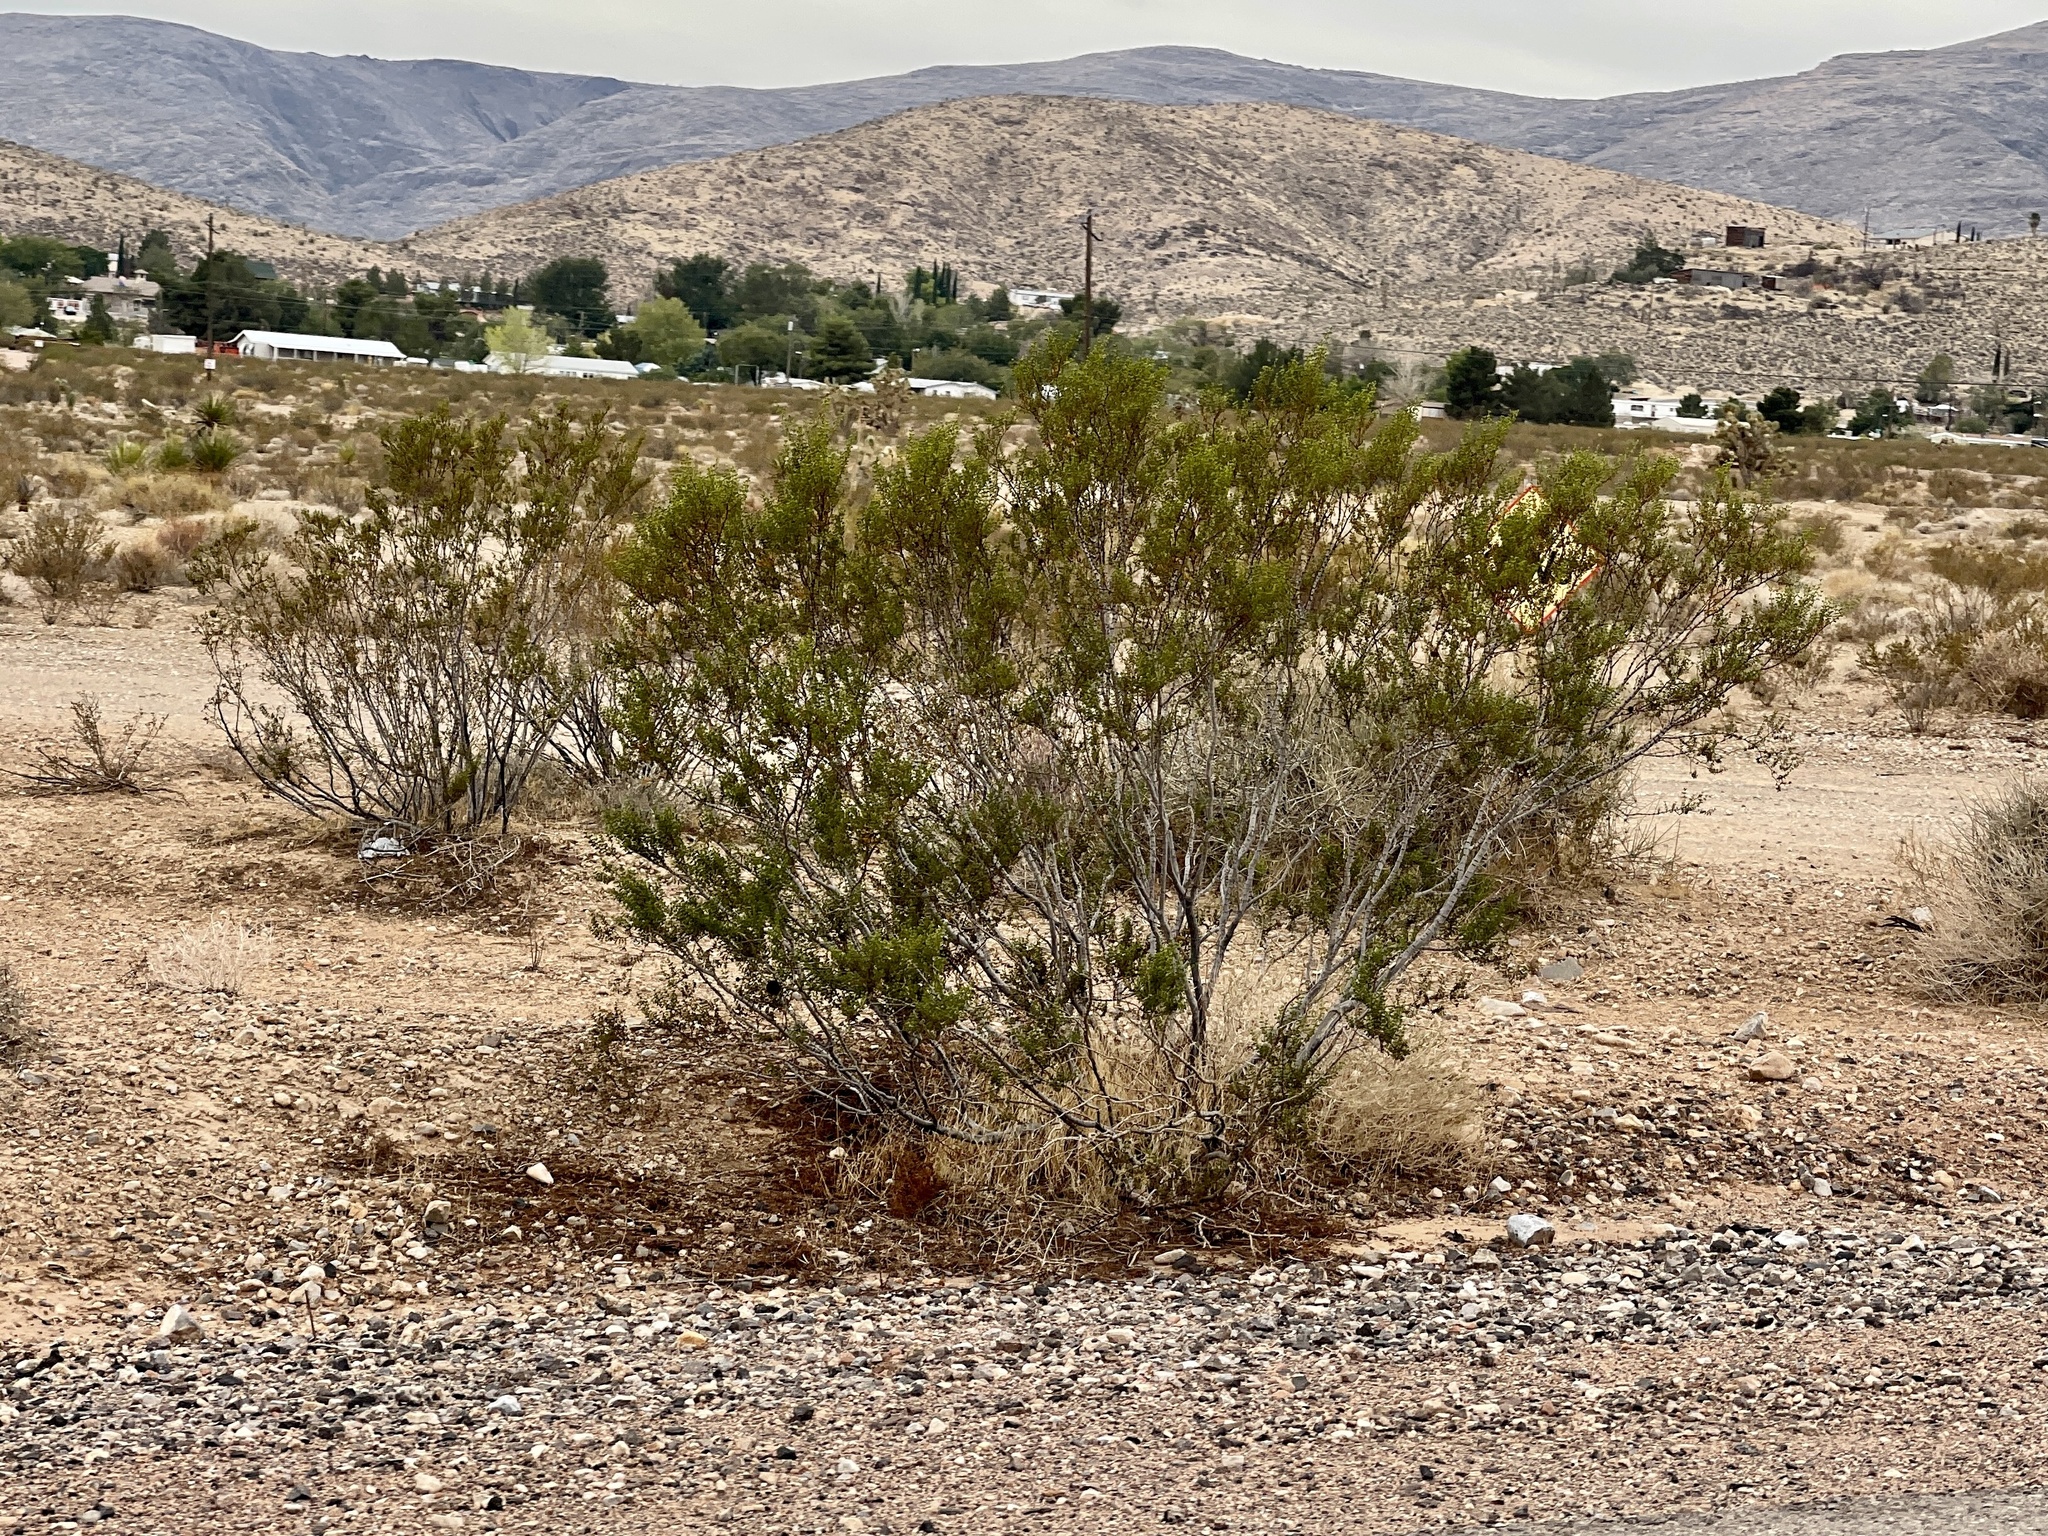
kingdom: Plantae
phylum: Tracheophyta
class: Magnoliopsida
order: Zygophyllales
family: Zygophyllaceae
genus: Larrea
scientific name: Larrea tridentata
